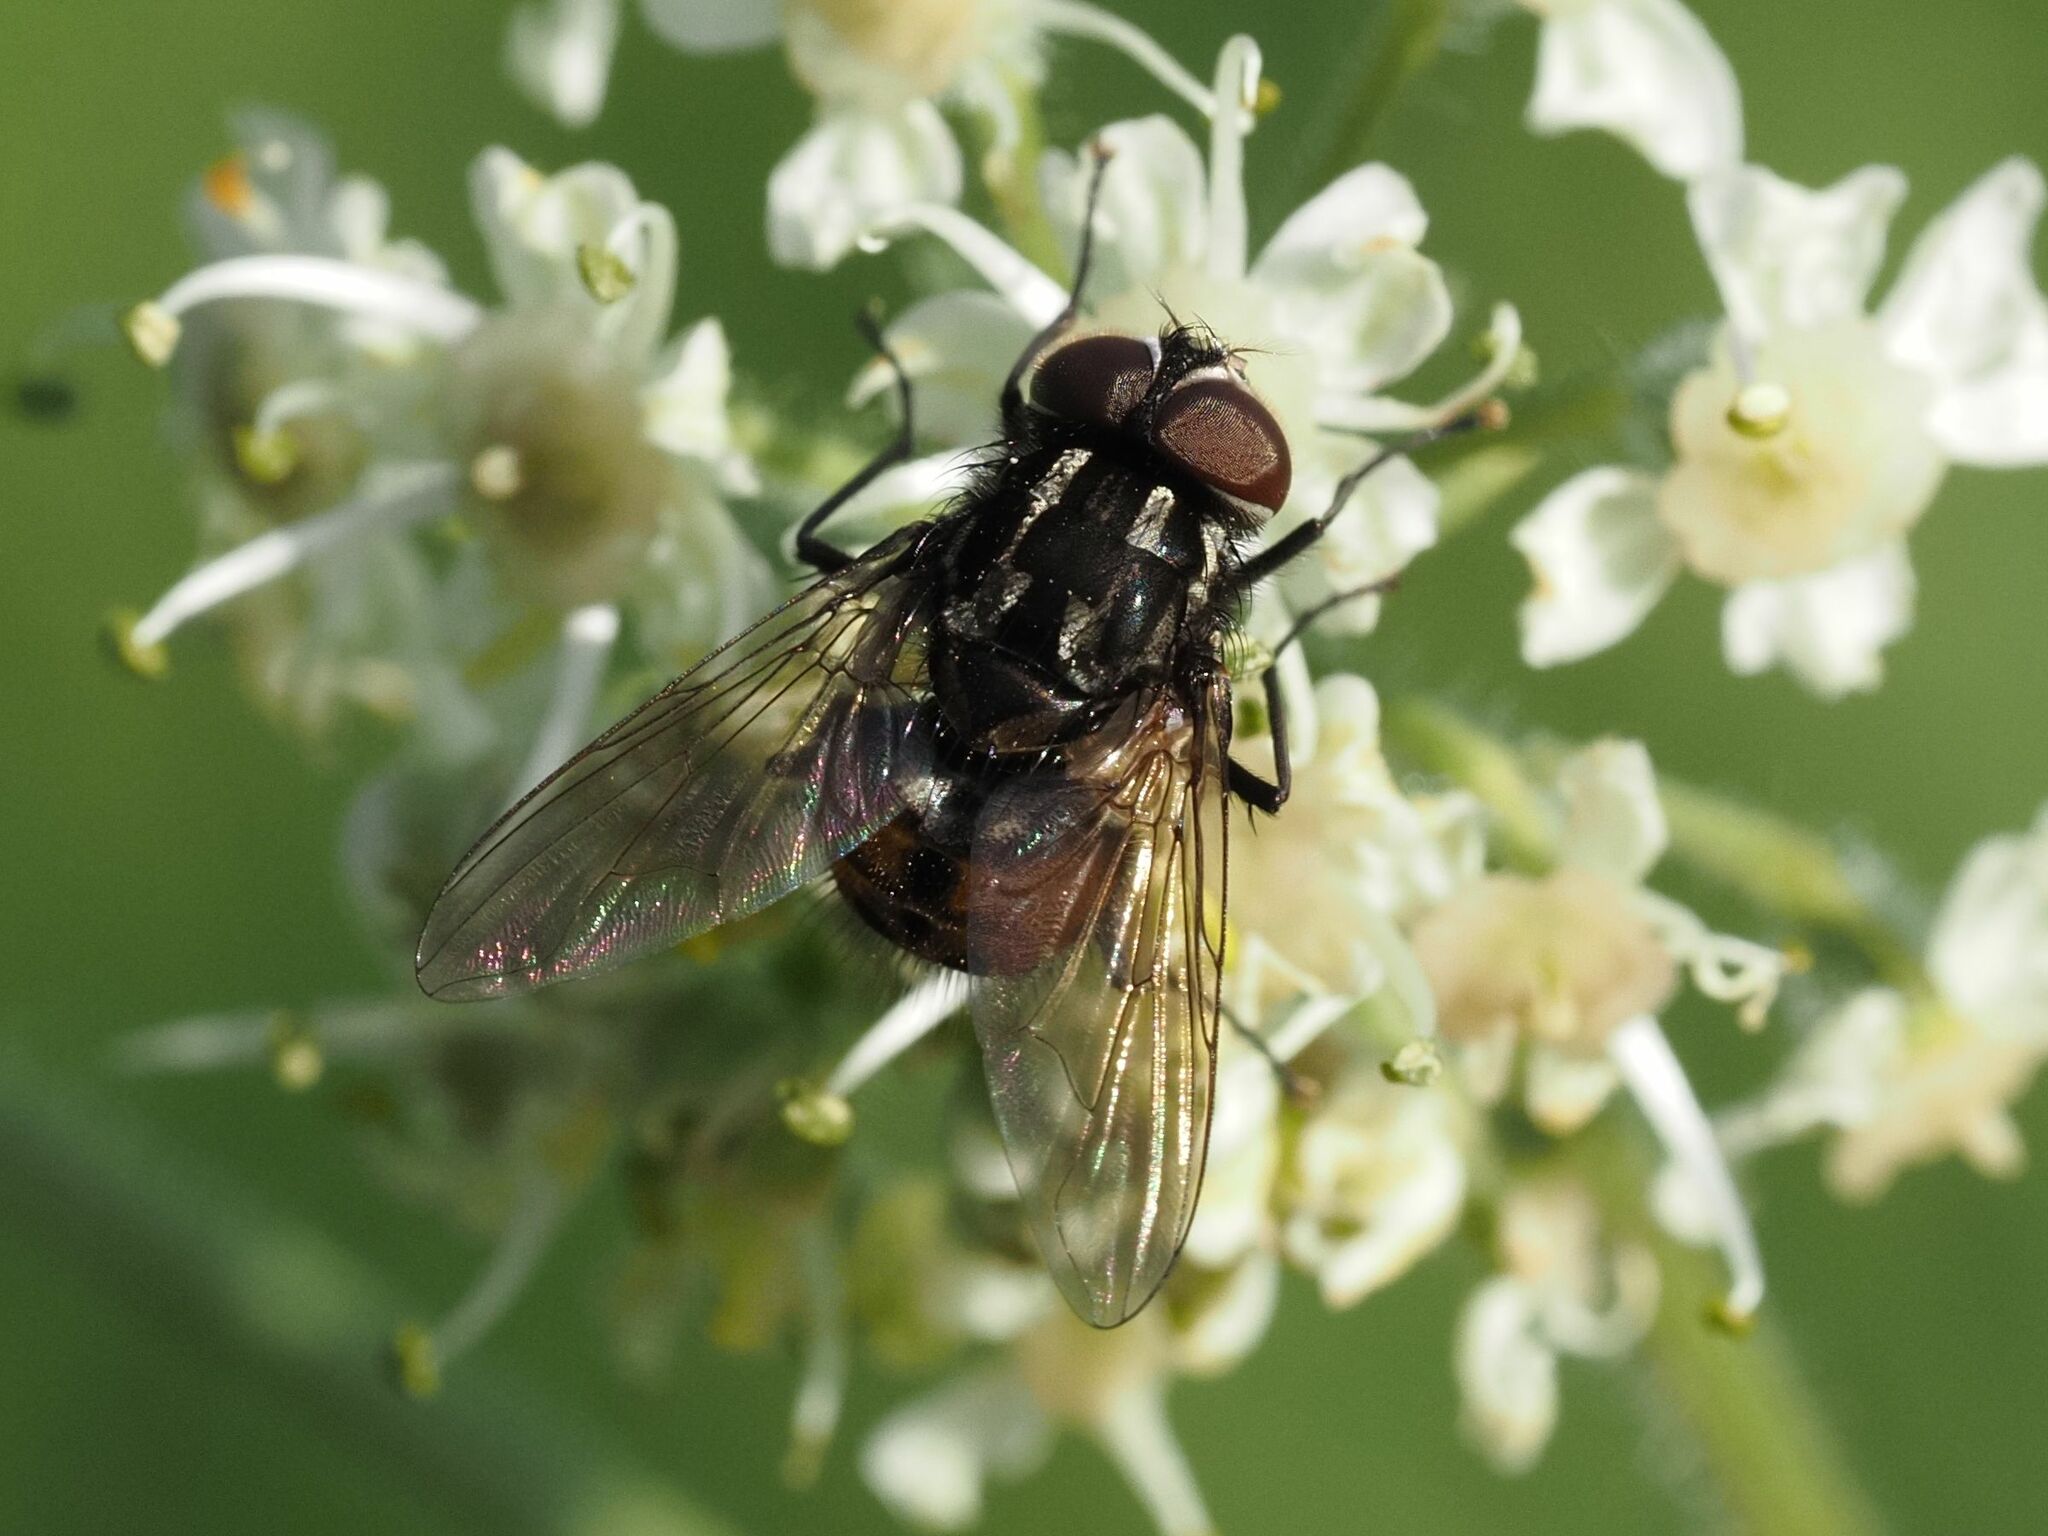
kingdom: Animalia
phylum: Arthropoda
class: Insecta
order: Diptera
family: Muscidae
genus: Graphomya
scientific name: Graphomya maculata
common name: Muscid fly
